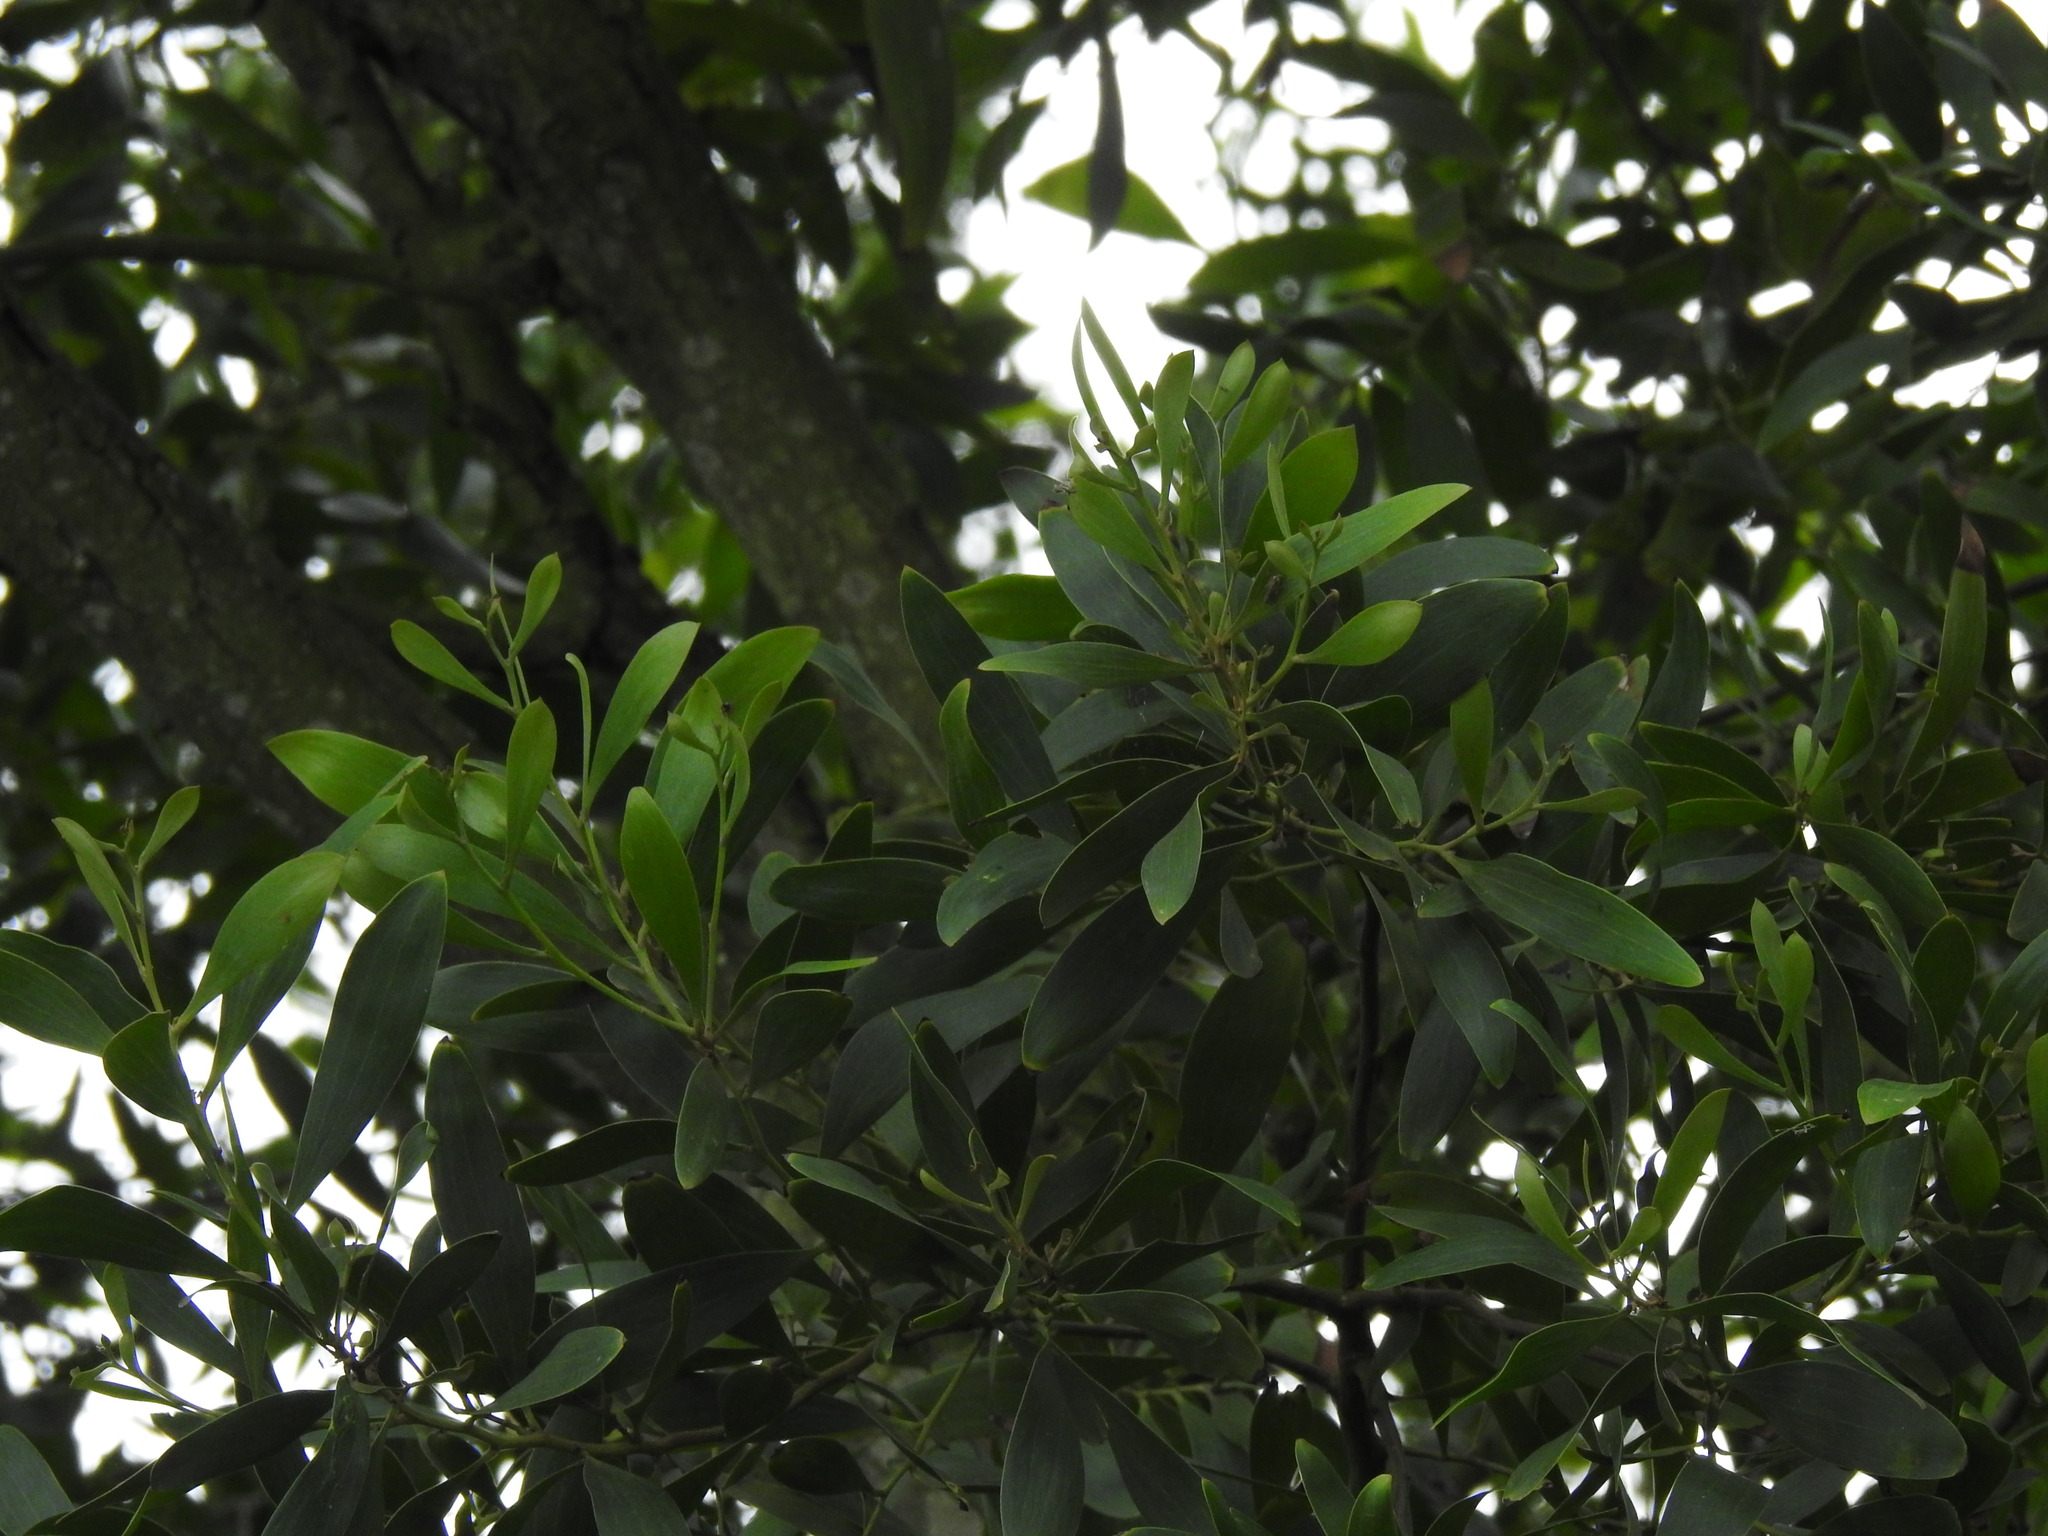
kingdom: Plantae
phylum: Tracheophyta
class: Magnoliopsida
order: Fabales
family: Fabaceae
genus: Acacia
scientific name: Acacia melanoxylon
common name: Blackwood
